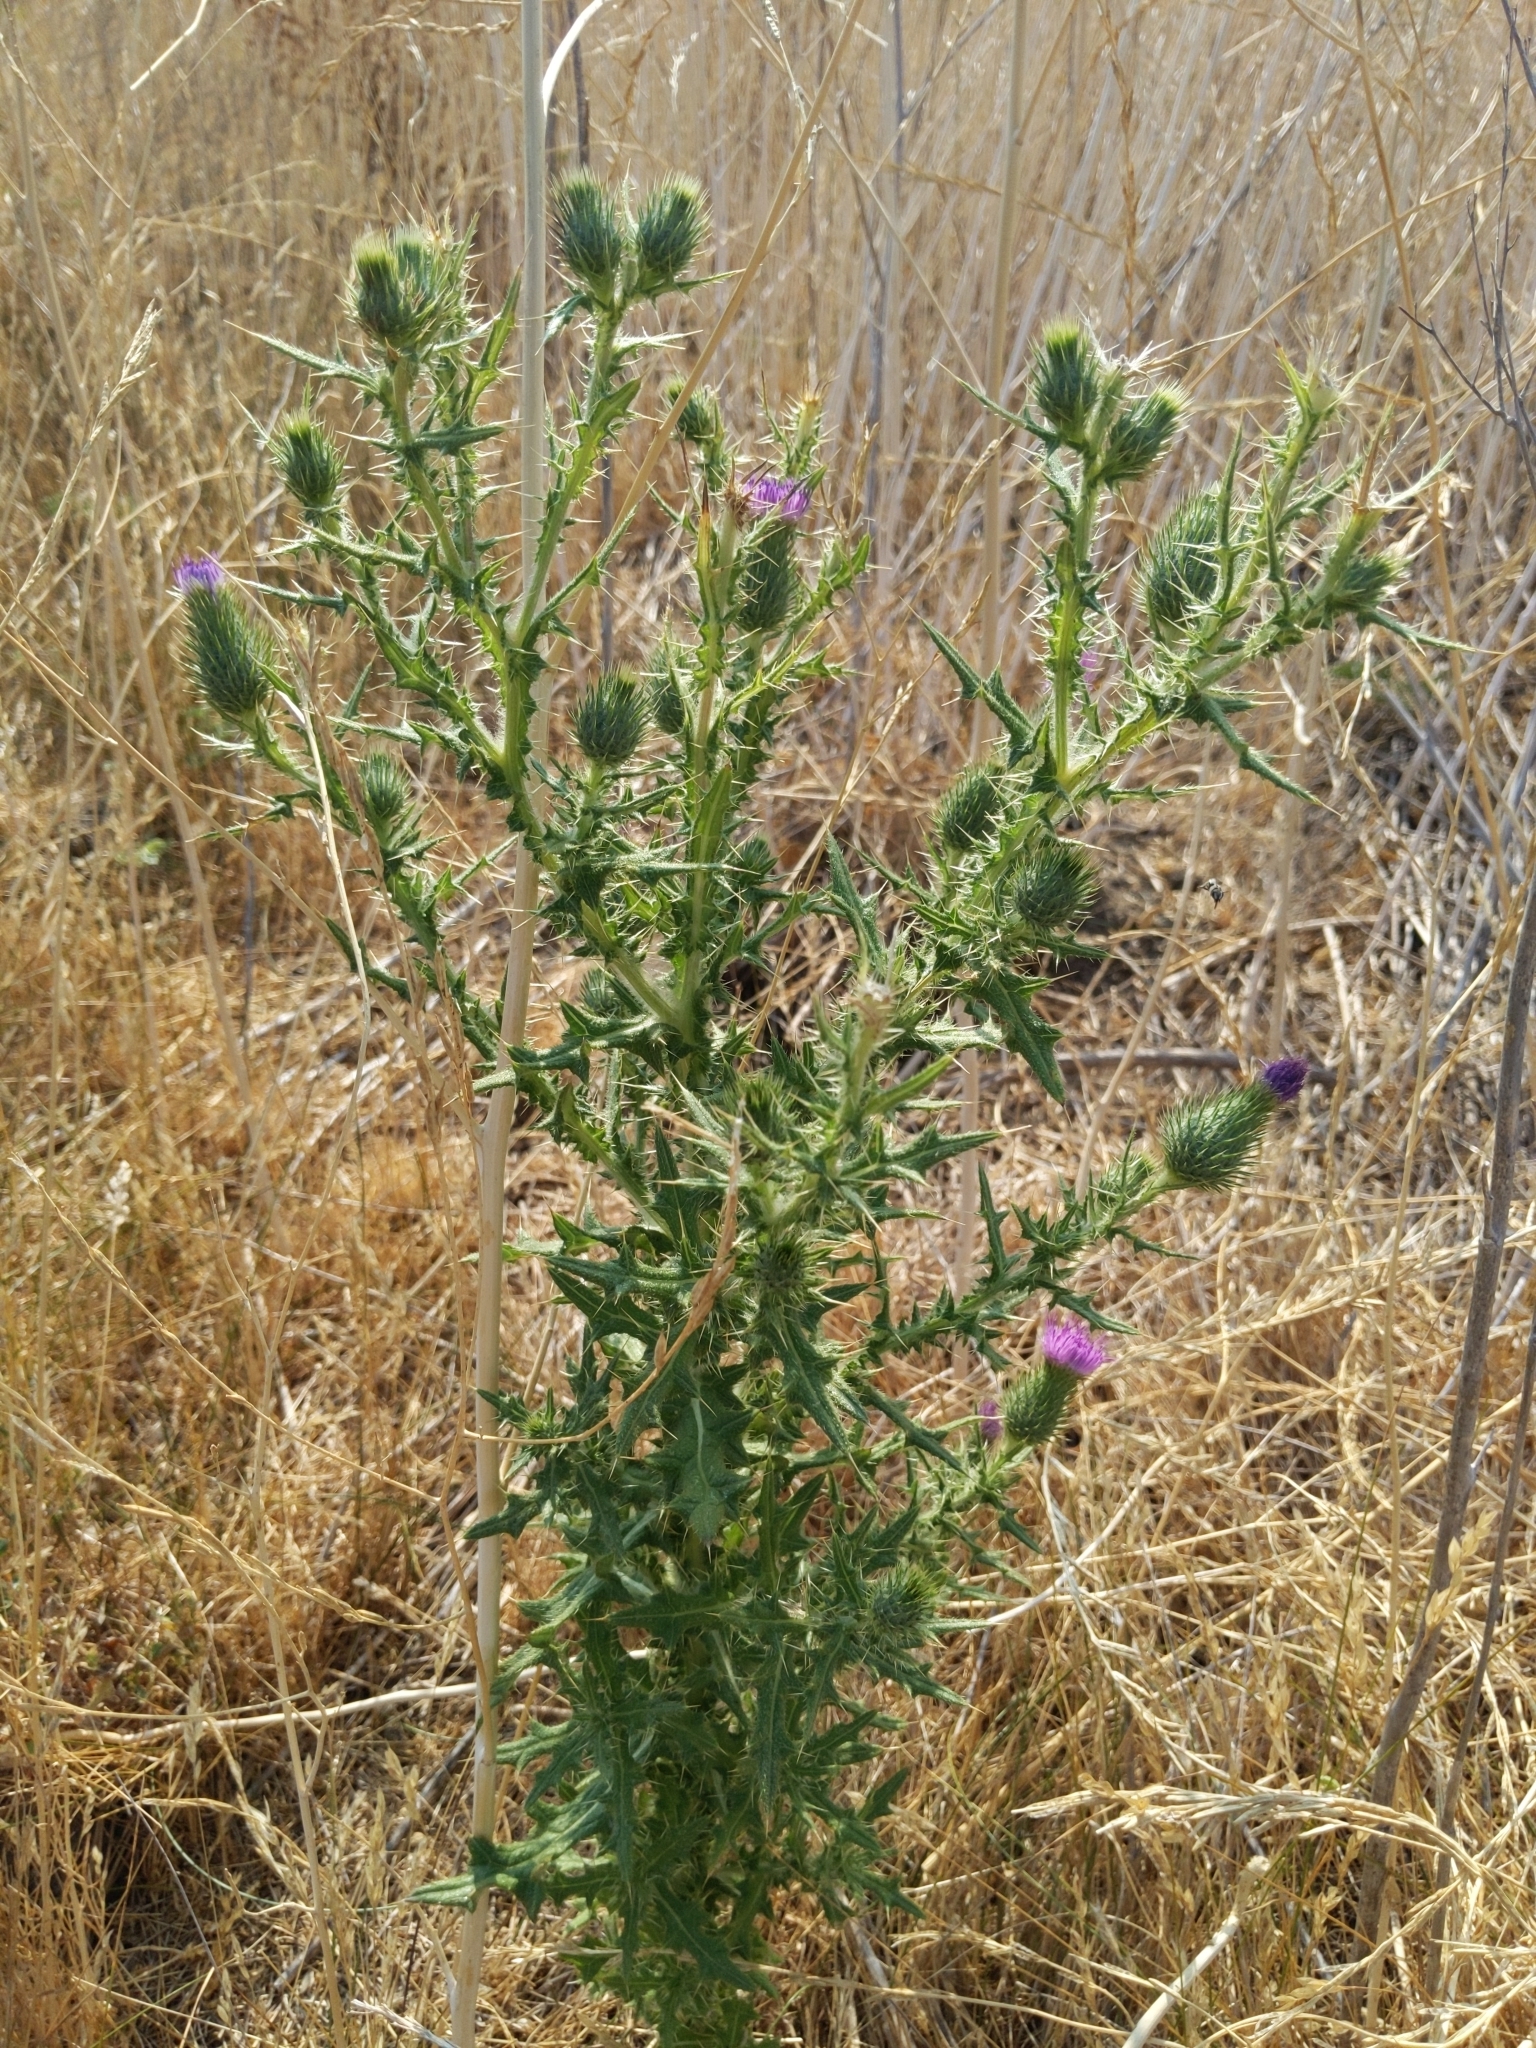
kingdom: Plantae
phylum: Tracheophyta
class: Magnoliopsida
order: Asterales
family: Asteraceae
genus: Cirsium
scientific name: Cirsium vulgare
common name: Bull thistle
